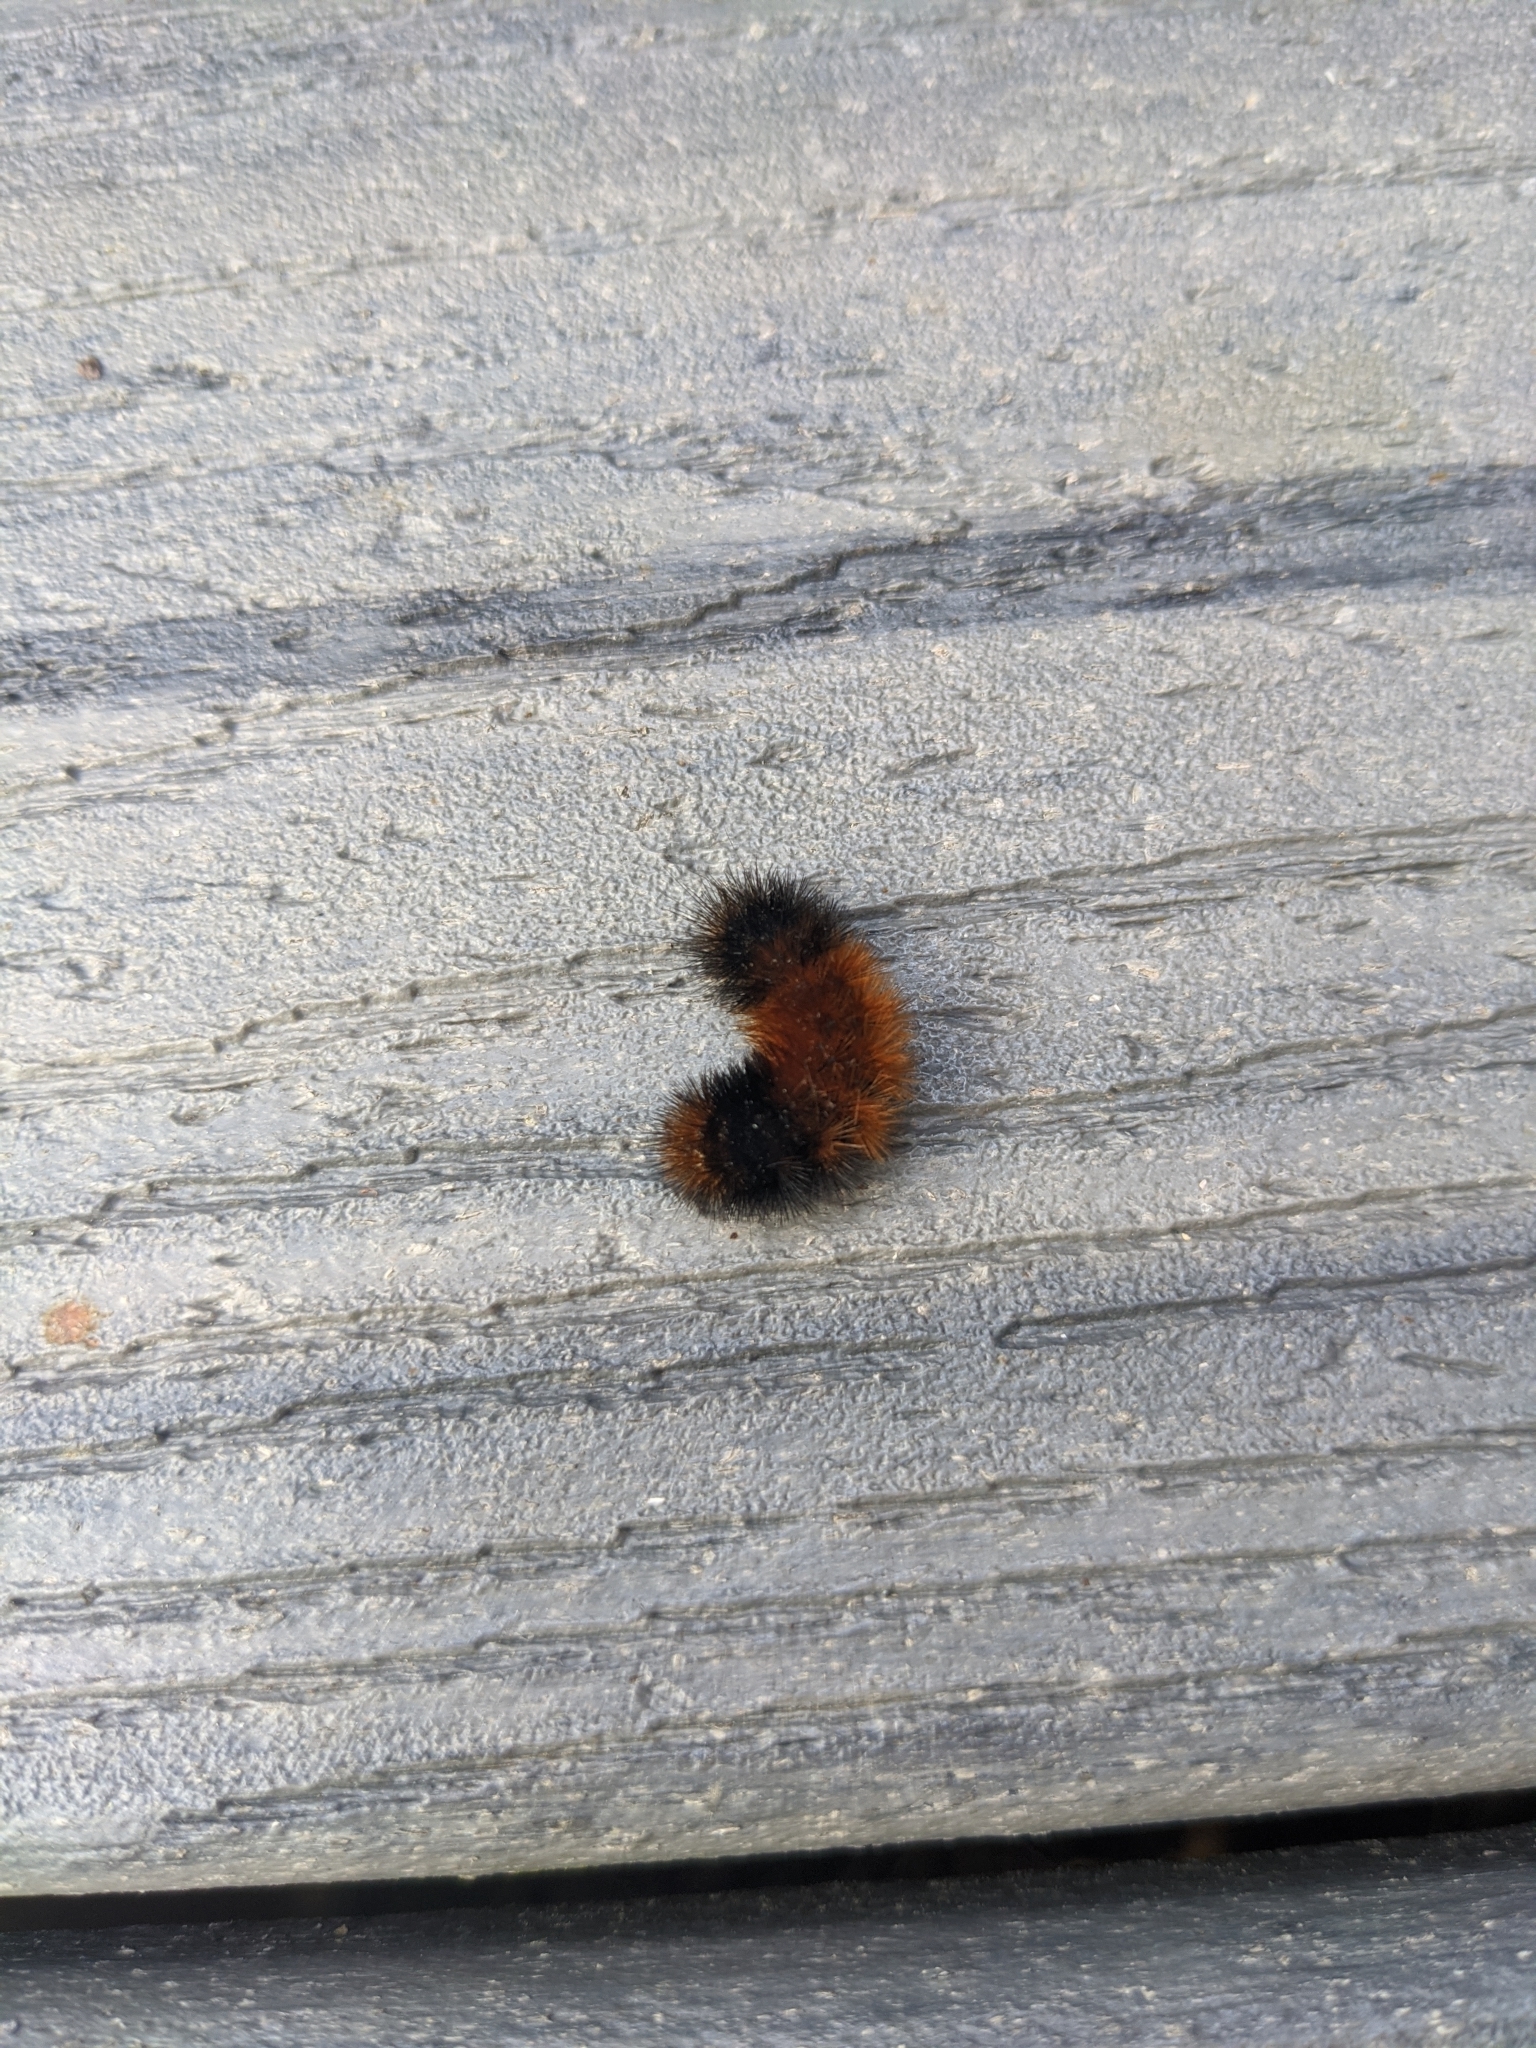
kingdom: Animalia
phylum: Arthropoda
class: Insecta
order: Lepidoptera
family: Erebidae
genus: Pyrrharctia
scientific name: Pyrrharctia isabella
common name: Isabella tiger moth
